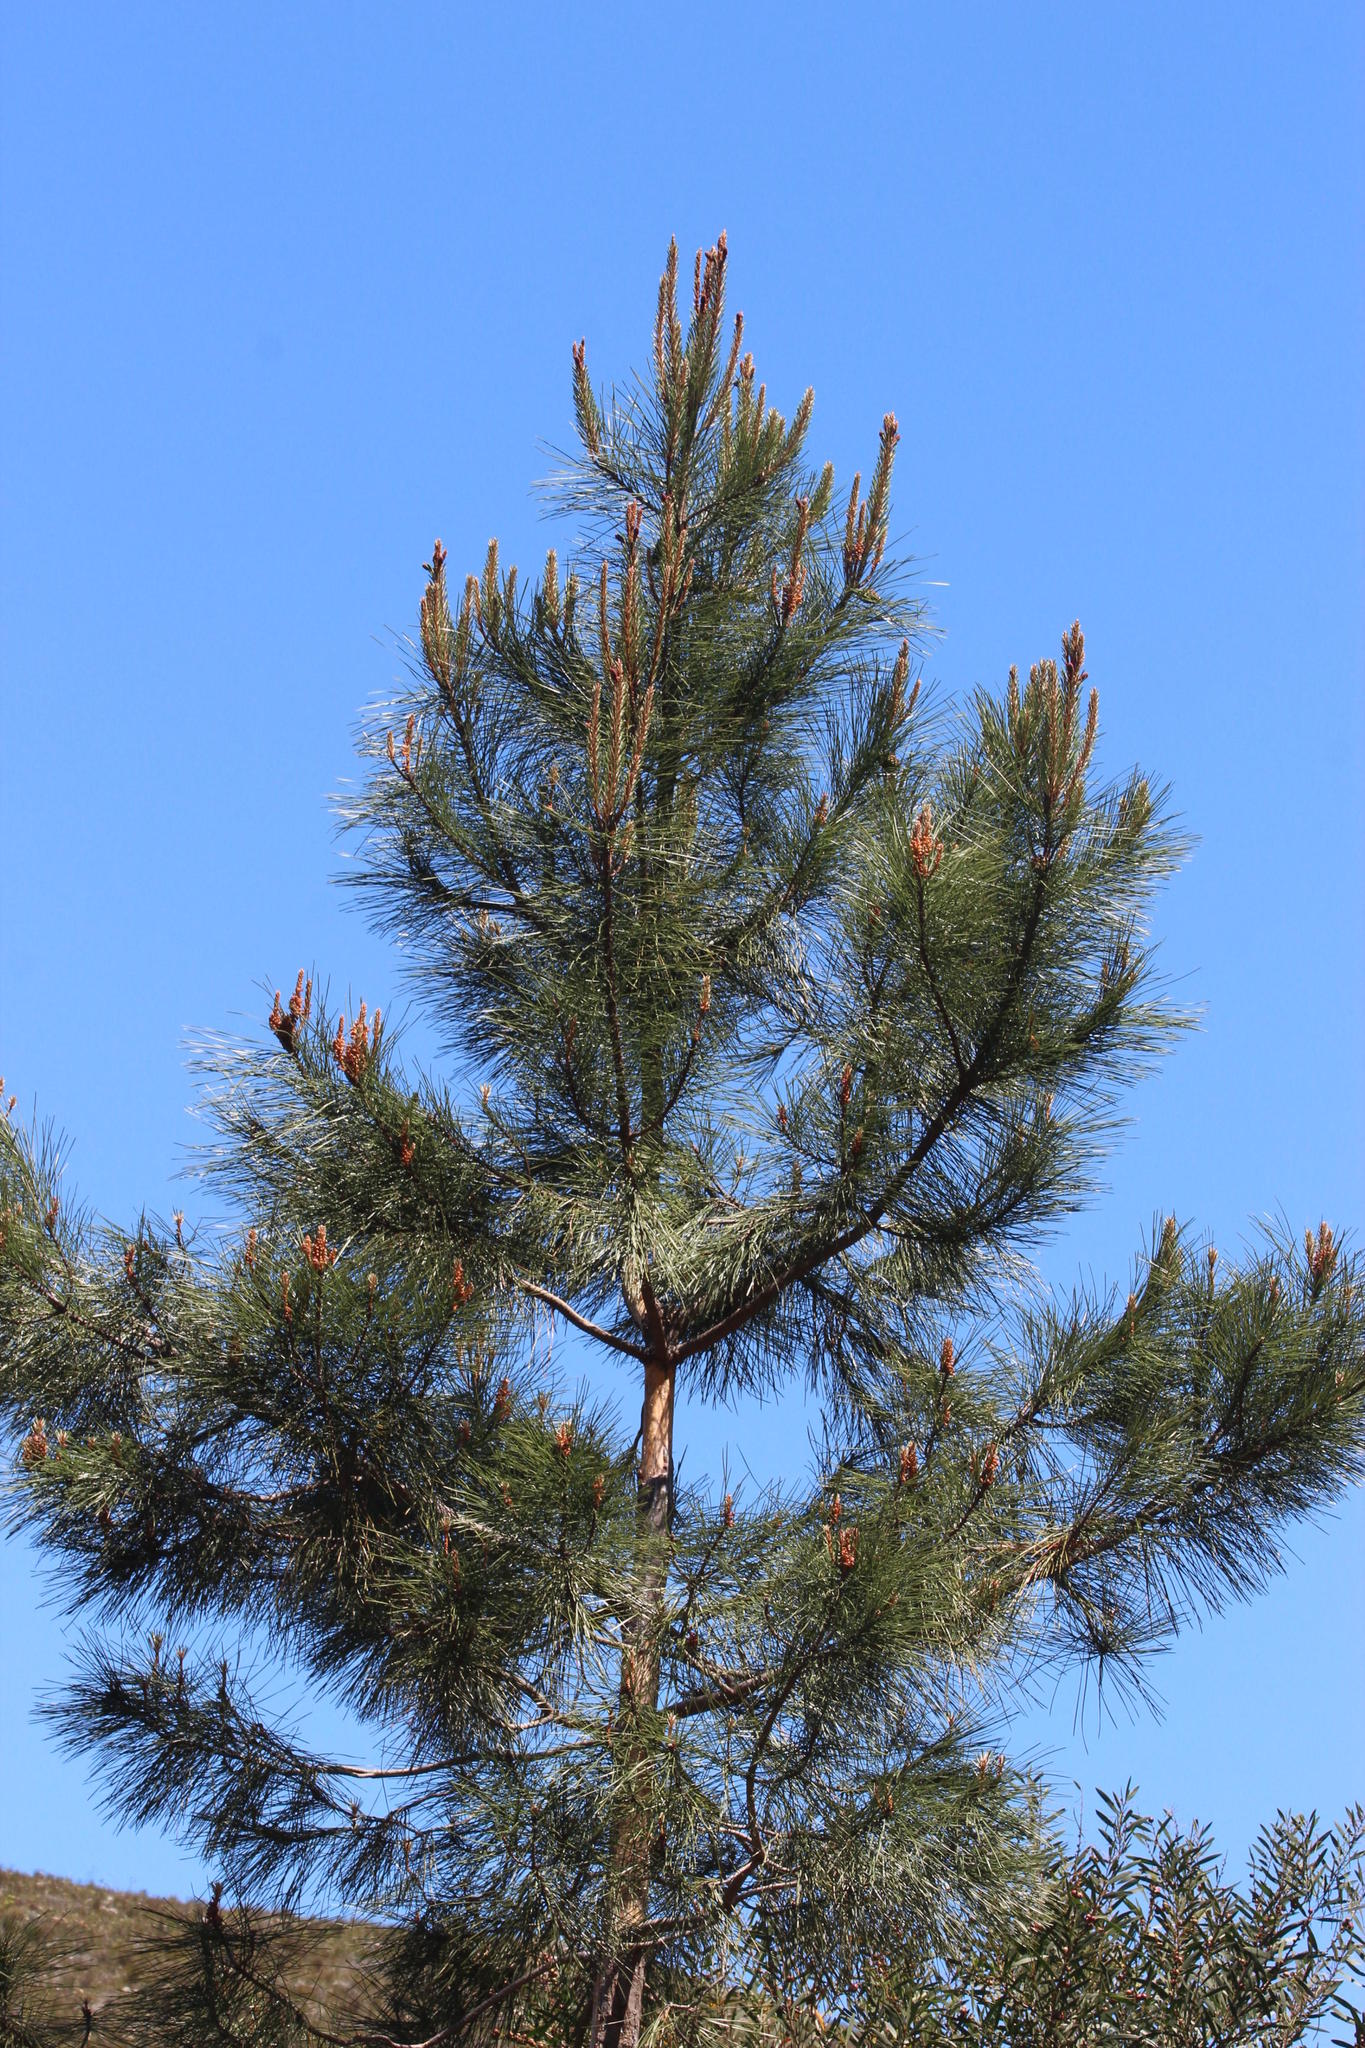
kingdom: Plantae
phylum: Tracheophyta
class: Pinopsida
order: Pinales
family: Pinaceae
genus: Pinus
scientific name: Pinus pinea
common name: Italian stone pine
